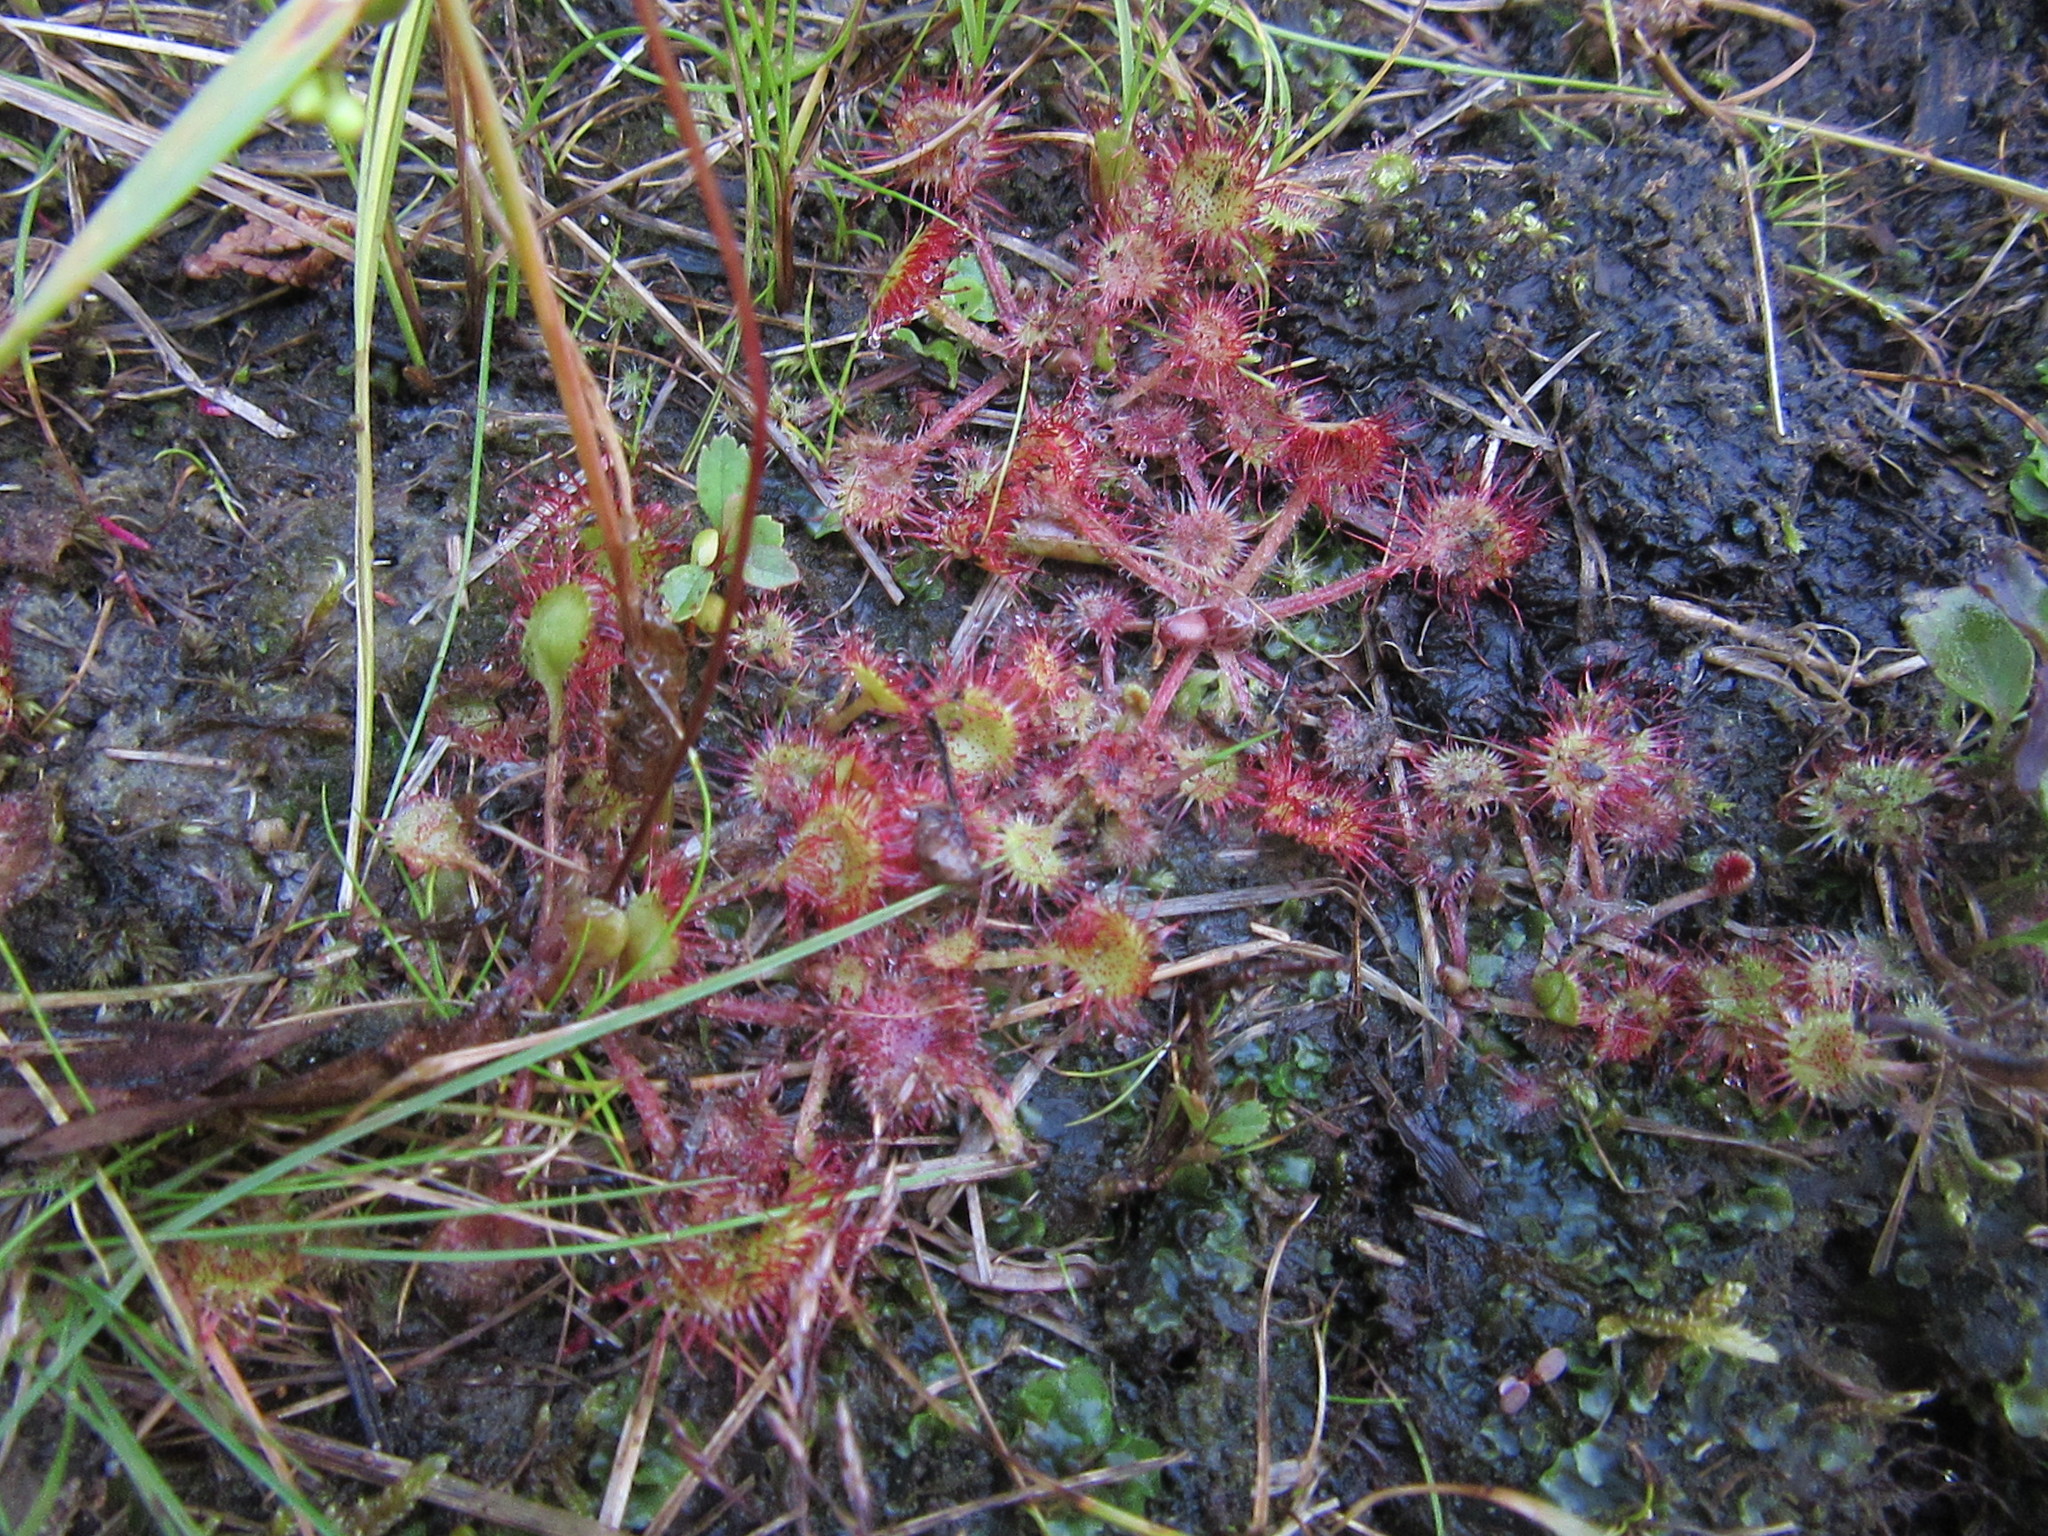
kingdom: Plantae
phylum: Tracheophyta
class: Magnoliopsida
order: Caryophyllales
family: Droseraceae
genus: Drosera
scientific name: Drosera rotundifolia
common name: Round-leaved sundew
